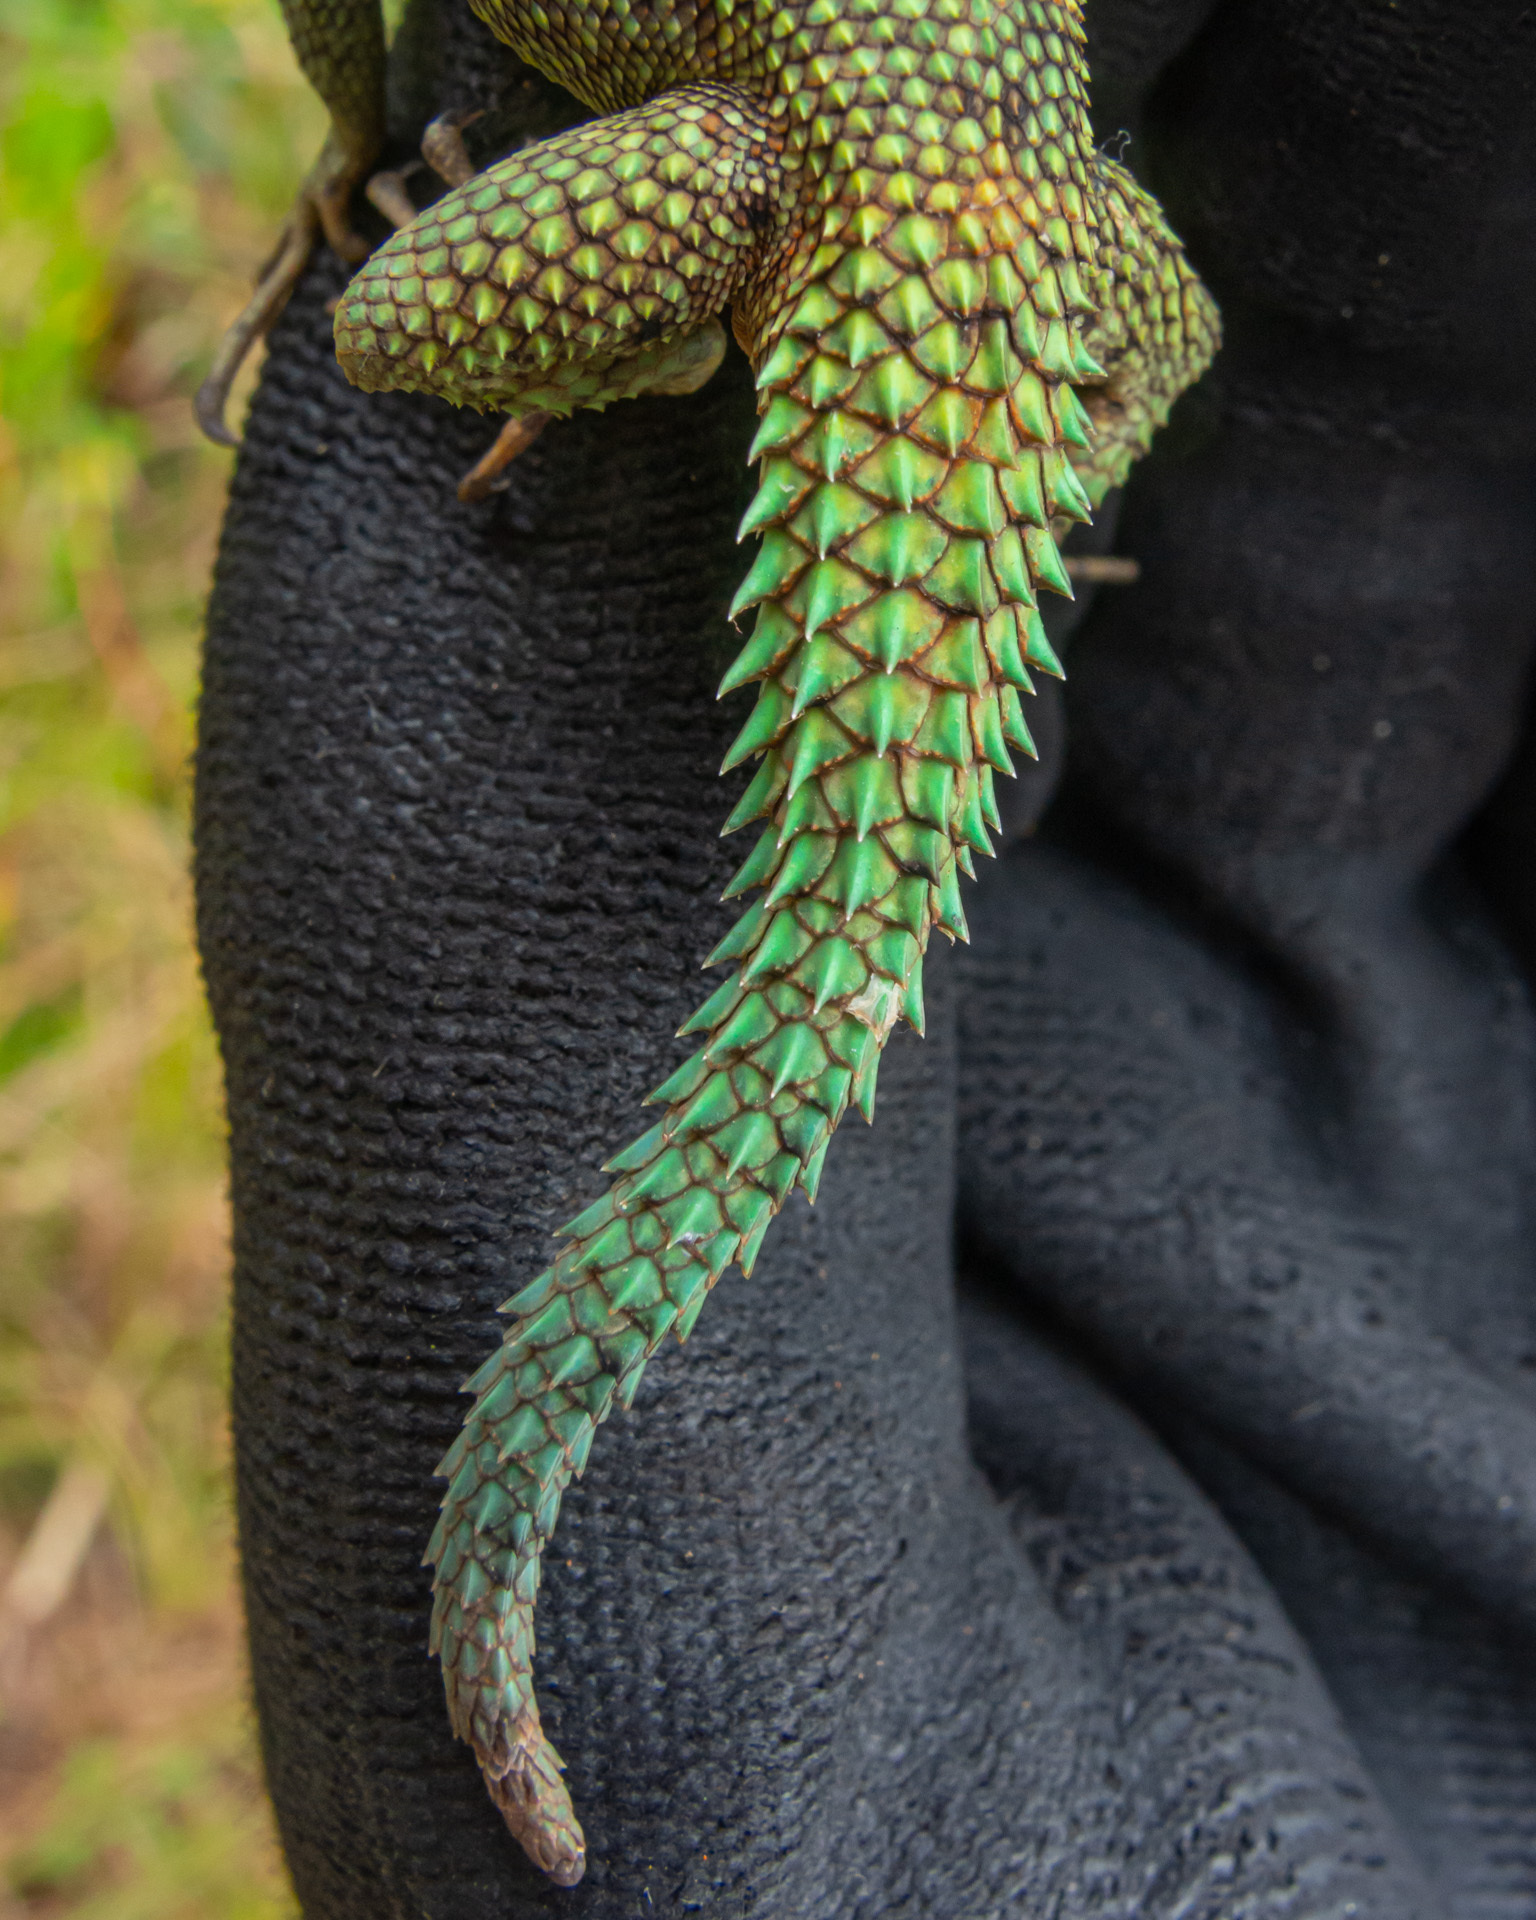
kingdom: Animalia
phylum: Chordata
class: Squamata
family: Tropiduridae
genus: Strobilurus
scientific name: Strobilurus torquatus
